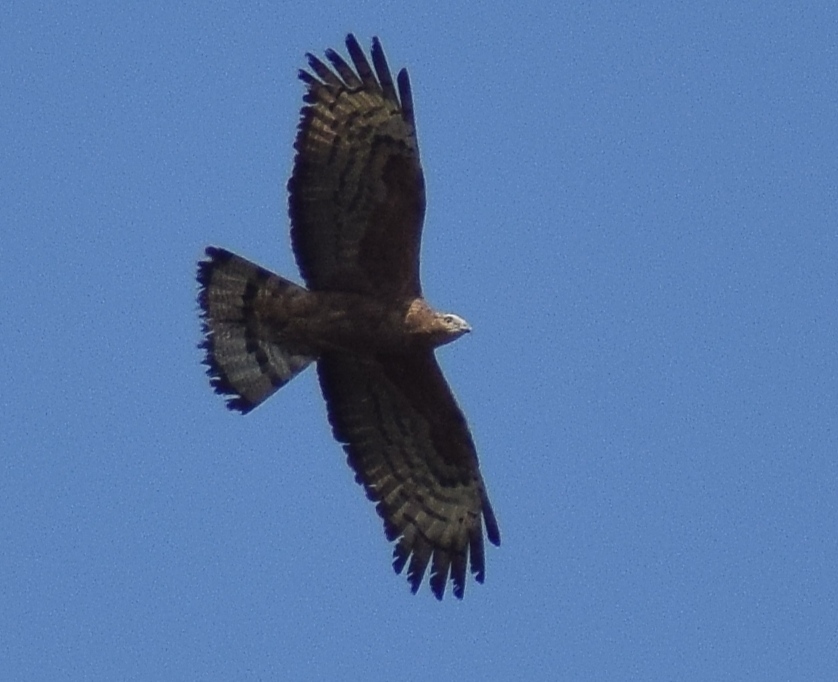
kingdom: Animalia
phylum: Chordata
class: Aves
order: Accipitriformes
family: Accipitridae
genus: Pernis
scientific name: Pernis ptilorhynchus
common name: Crested honey buzzard
